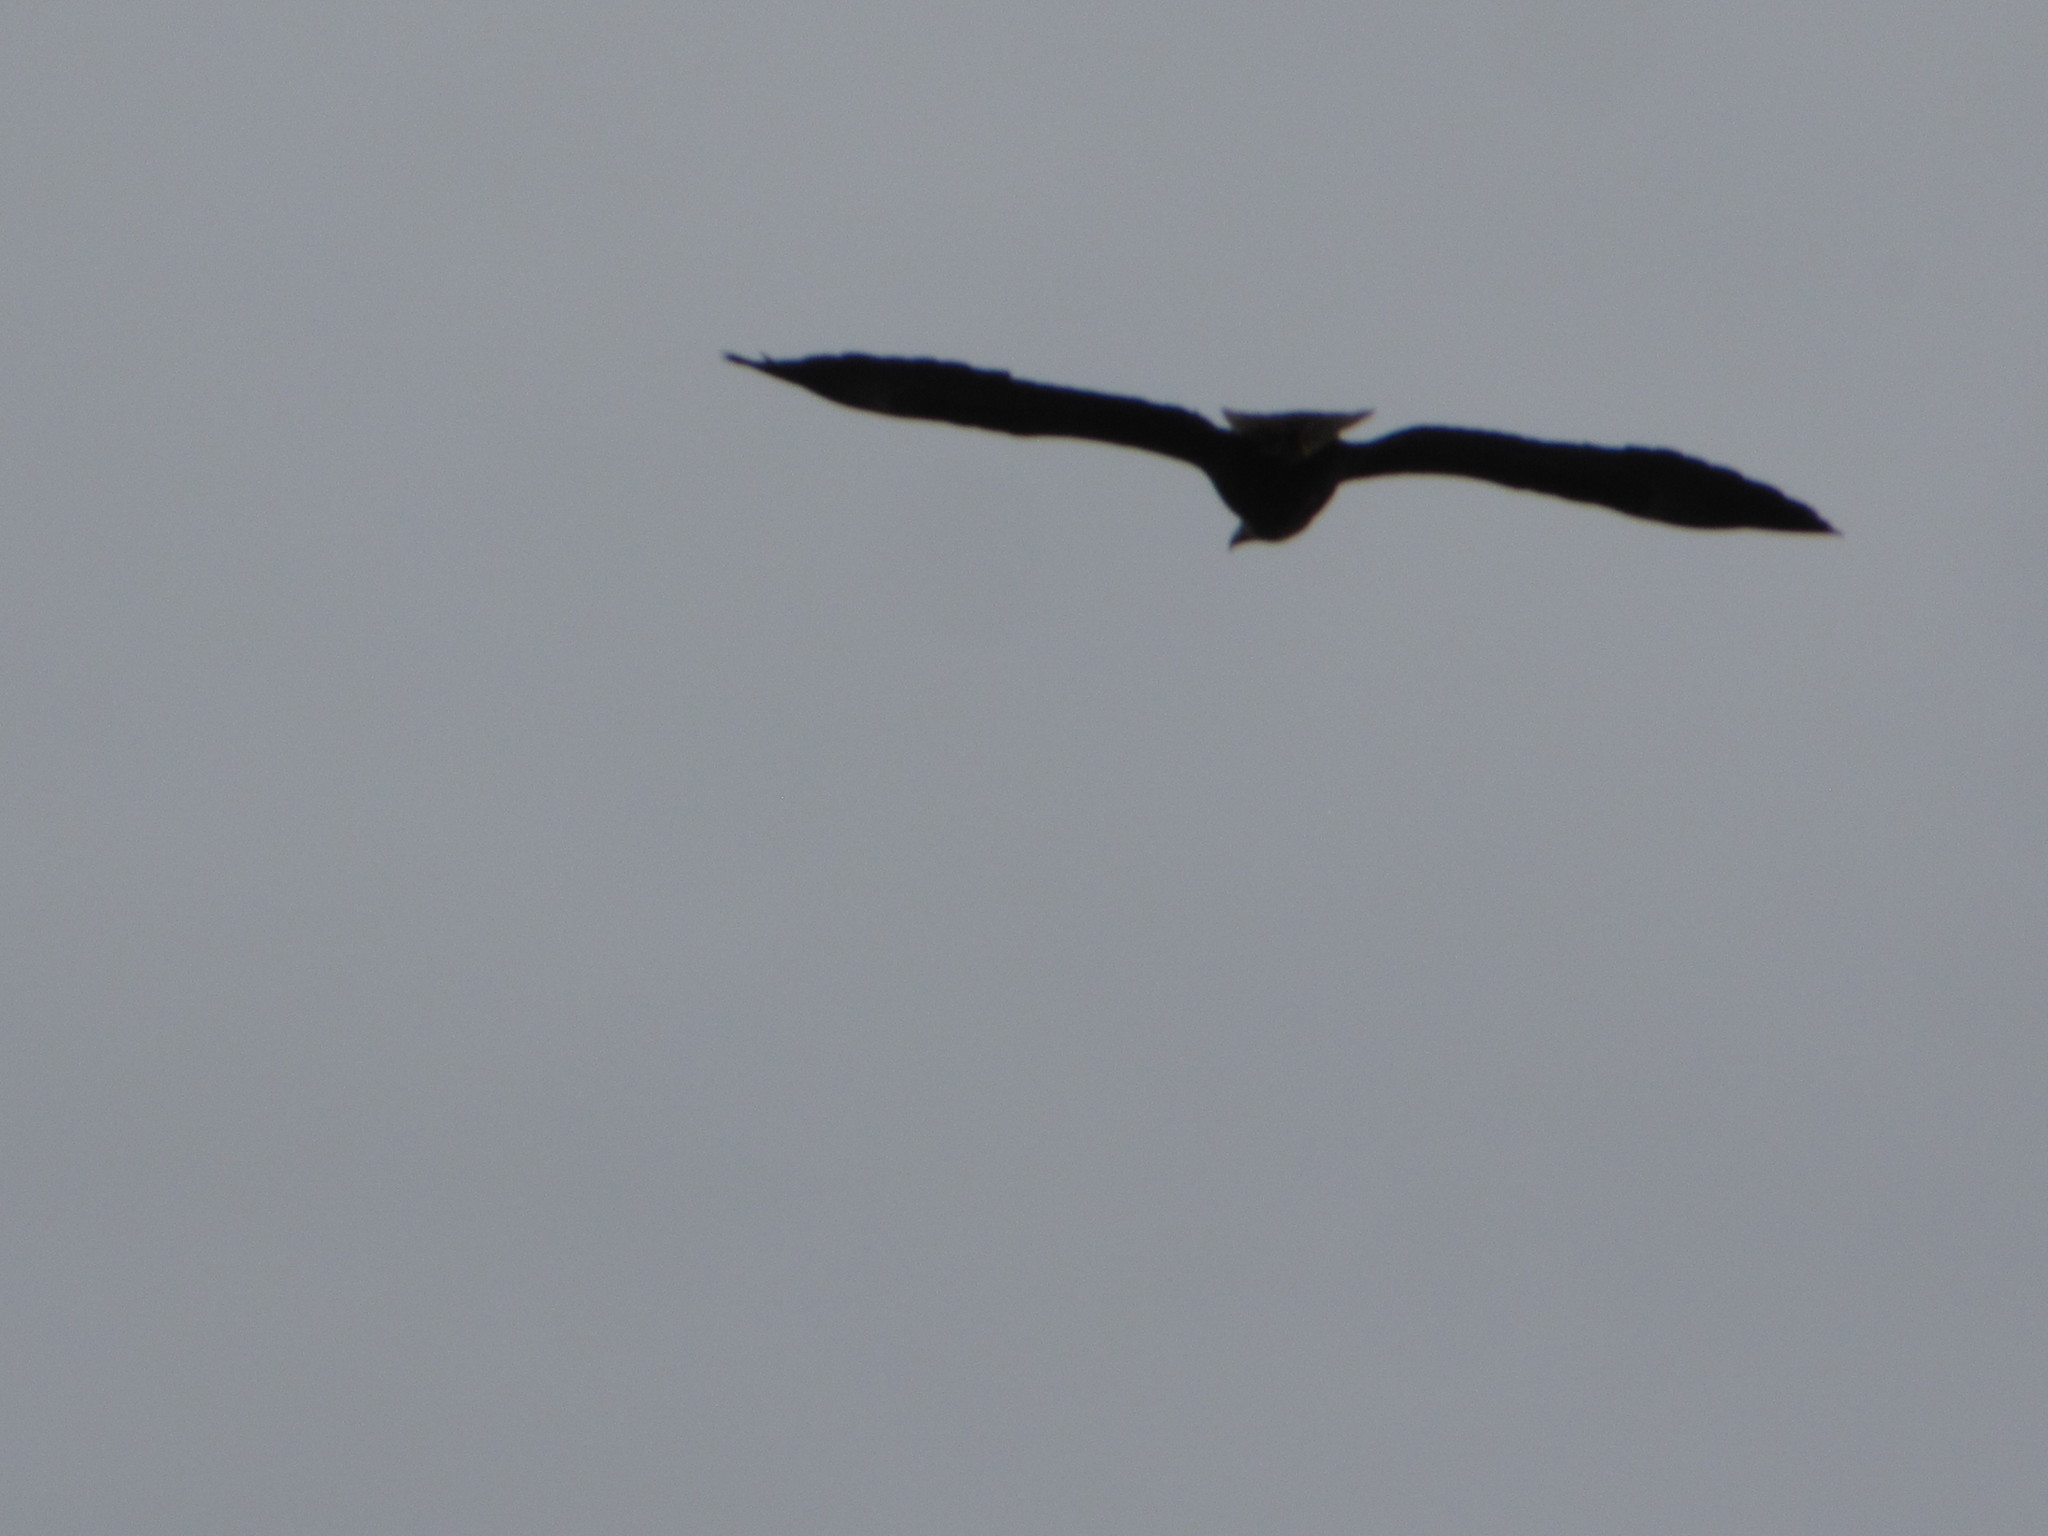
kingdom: Animalia
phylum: Chordata
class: Aves
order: Accipitriformes
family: Accipitridae
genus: Haliaeetus
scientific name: Haliaeetus leucocephalus
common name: Bald eagle
